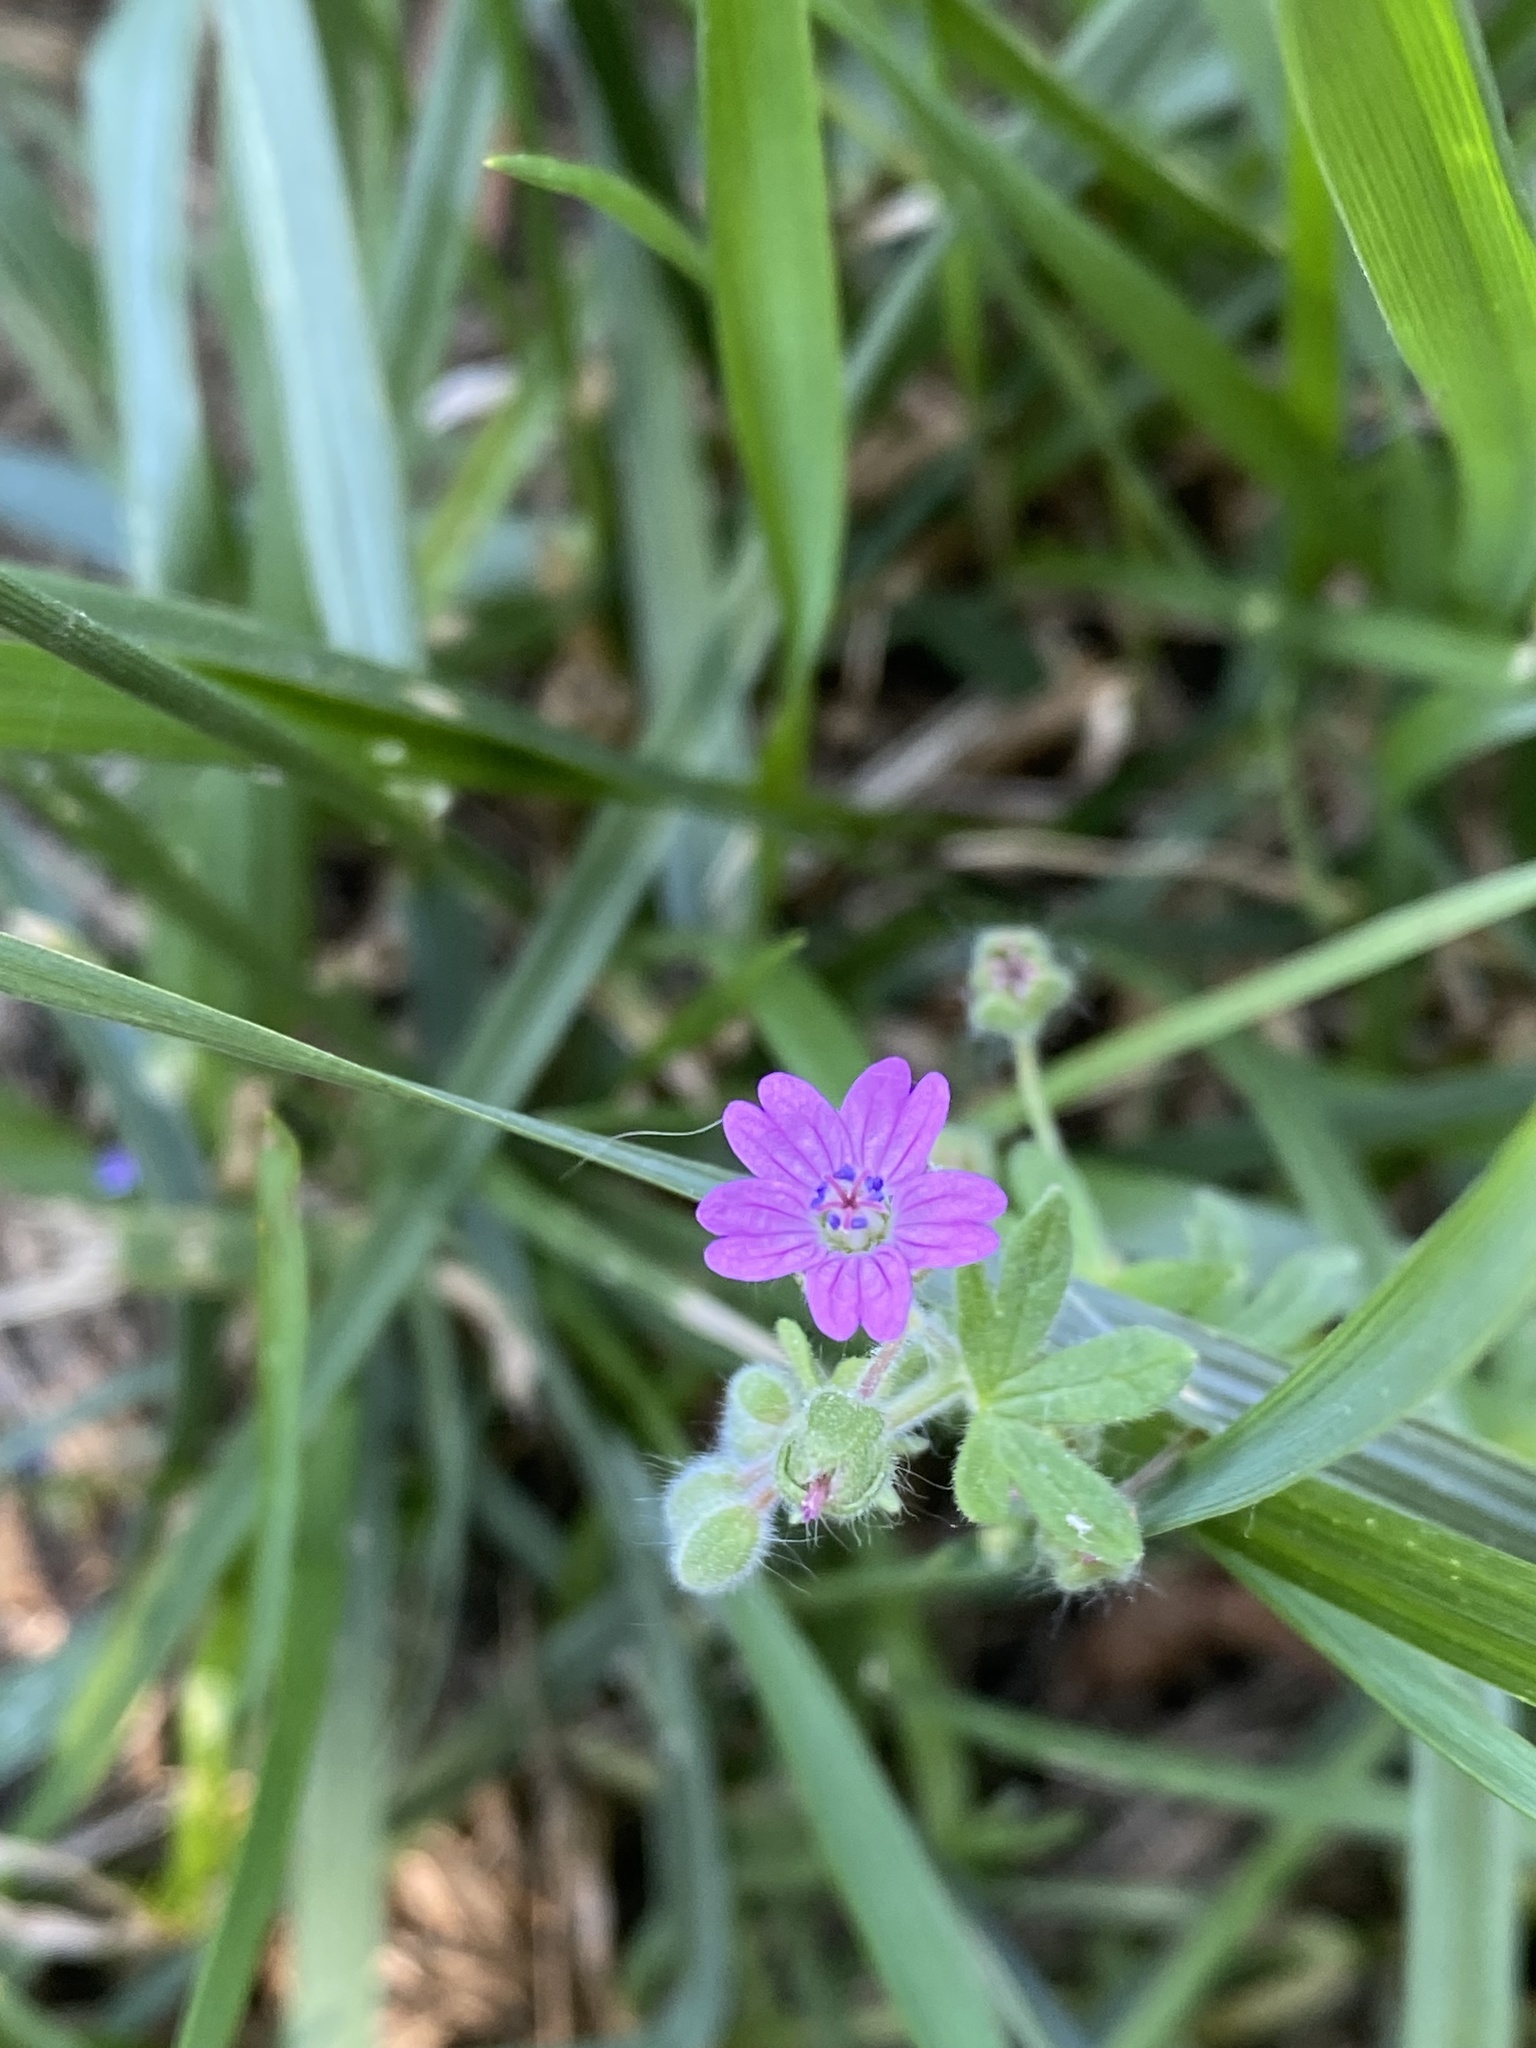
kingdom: Plantae
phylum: Tracheophyta
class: Magnoliopsida
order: Geraniales
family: Geraniaceae
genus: Geranium
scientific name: Geranium molle
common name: Dove's-foot crane's-bill
